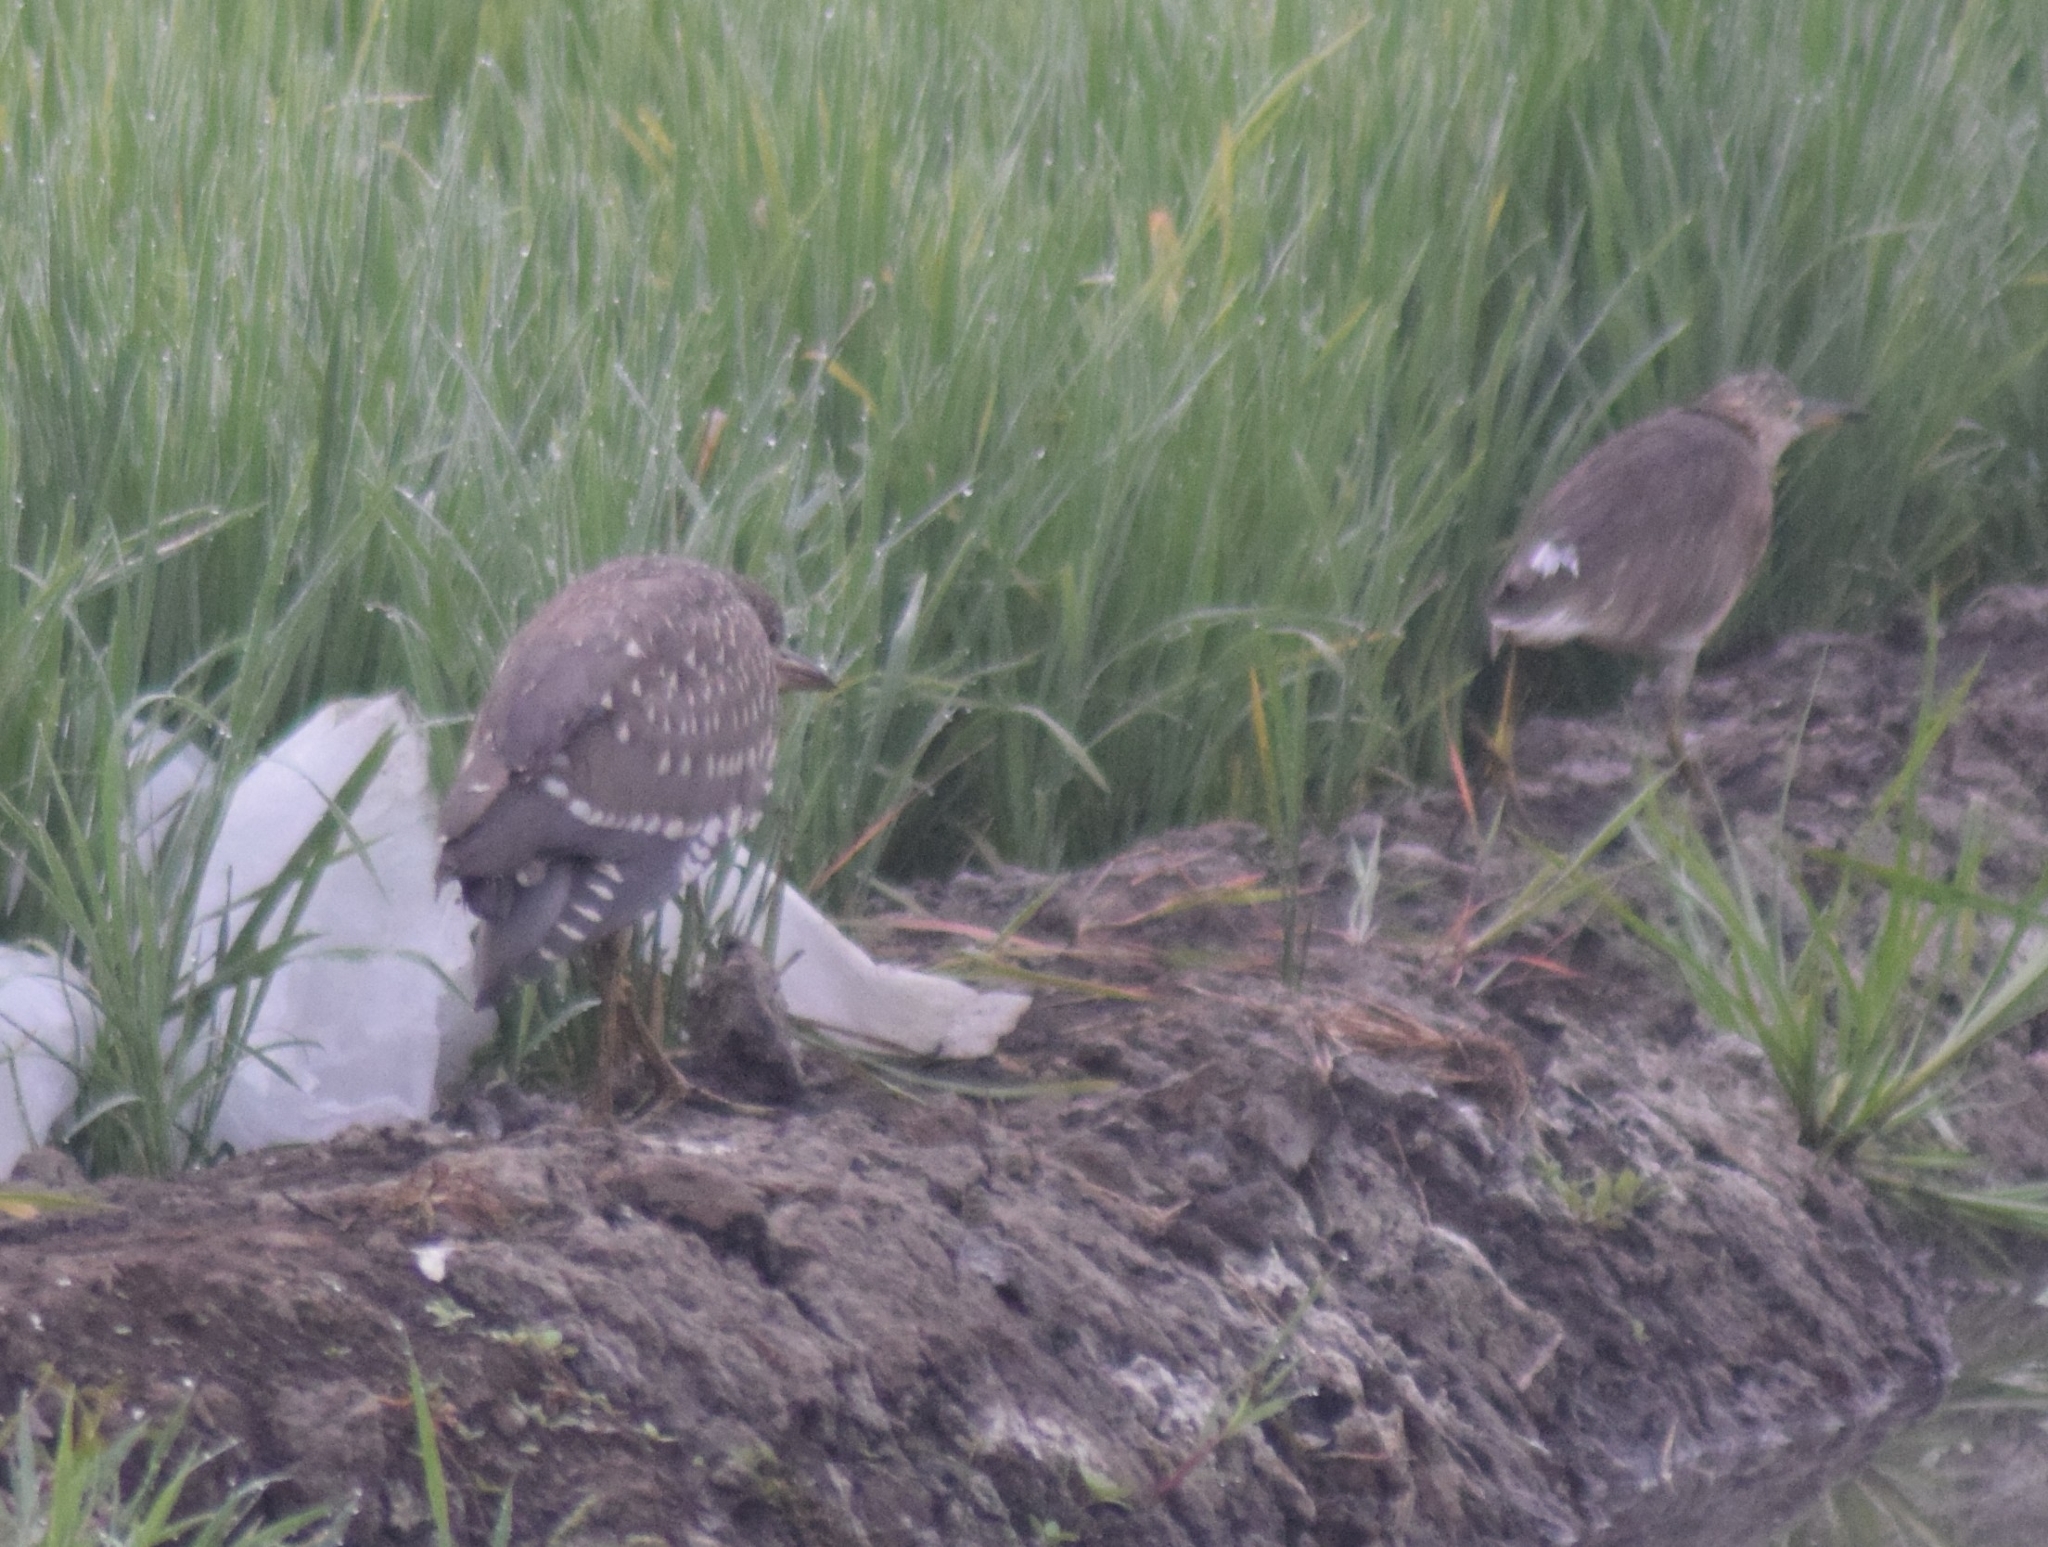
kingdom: Animalia
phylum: Chordata
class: Aves
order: Pelecaniformes
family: Ardeidae
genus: Nycticorax
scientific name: Nycticorax nycticorax
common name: Black-crowned night heron
